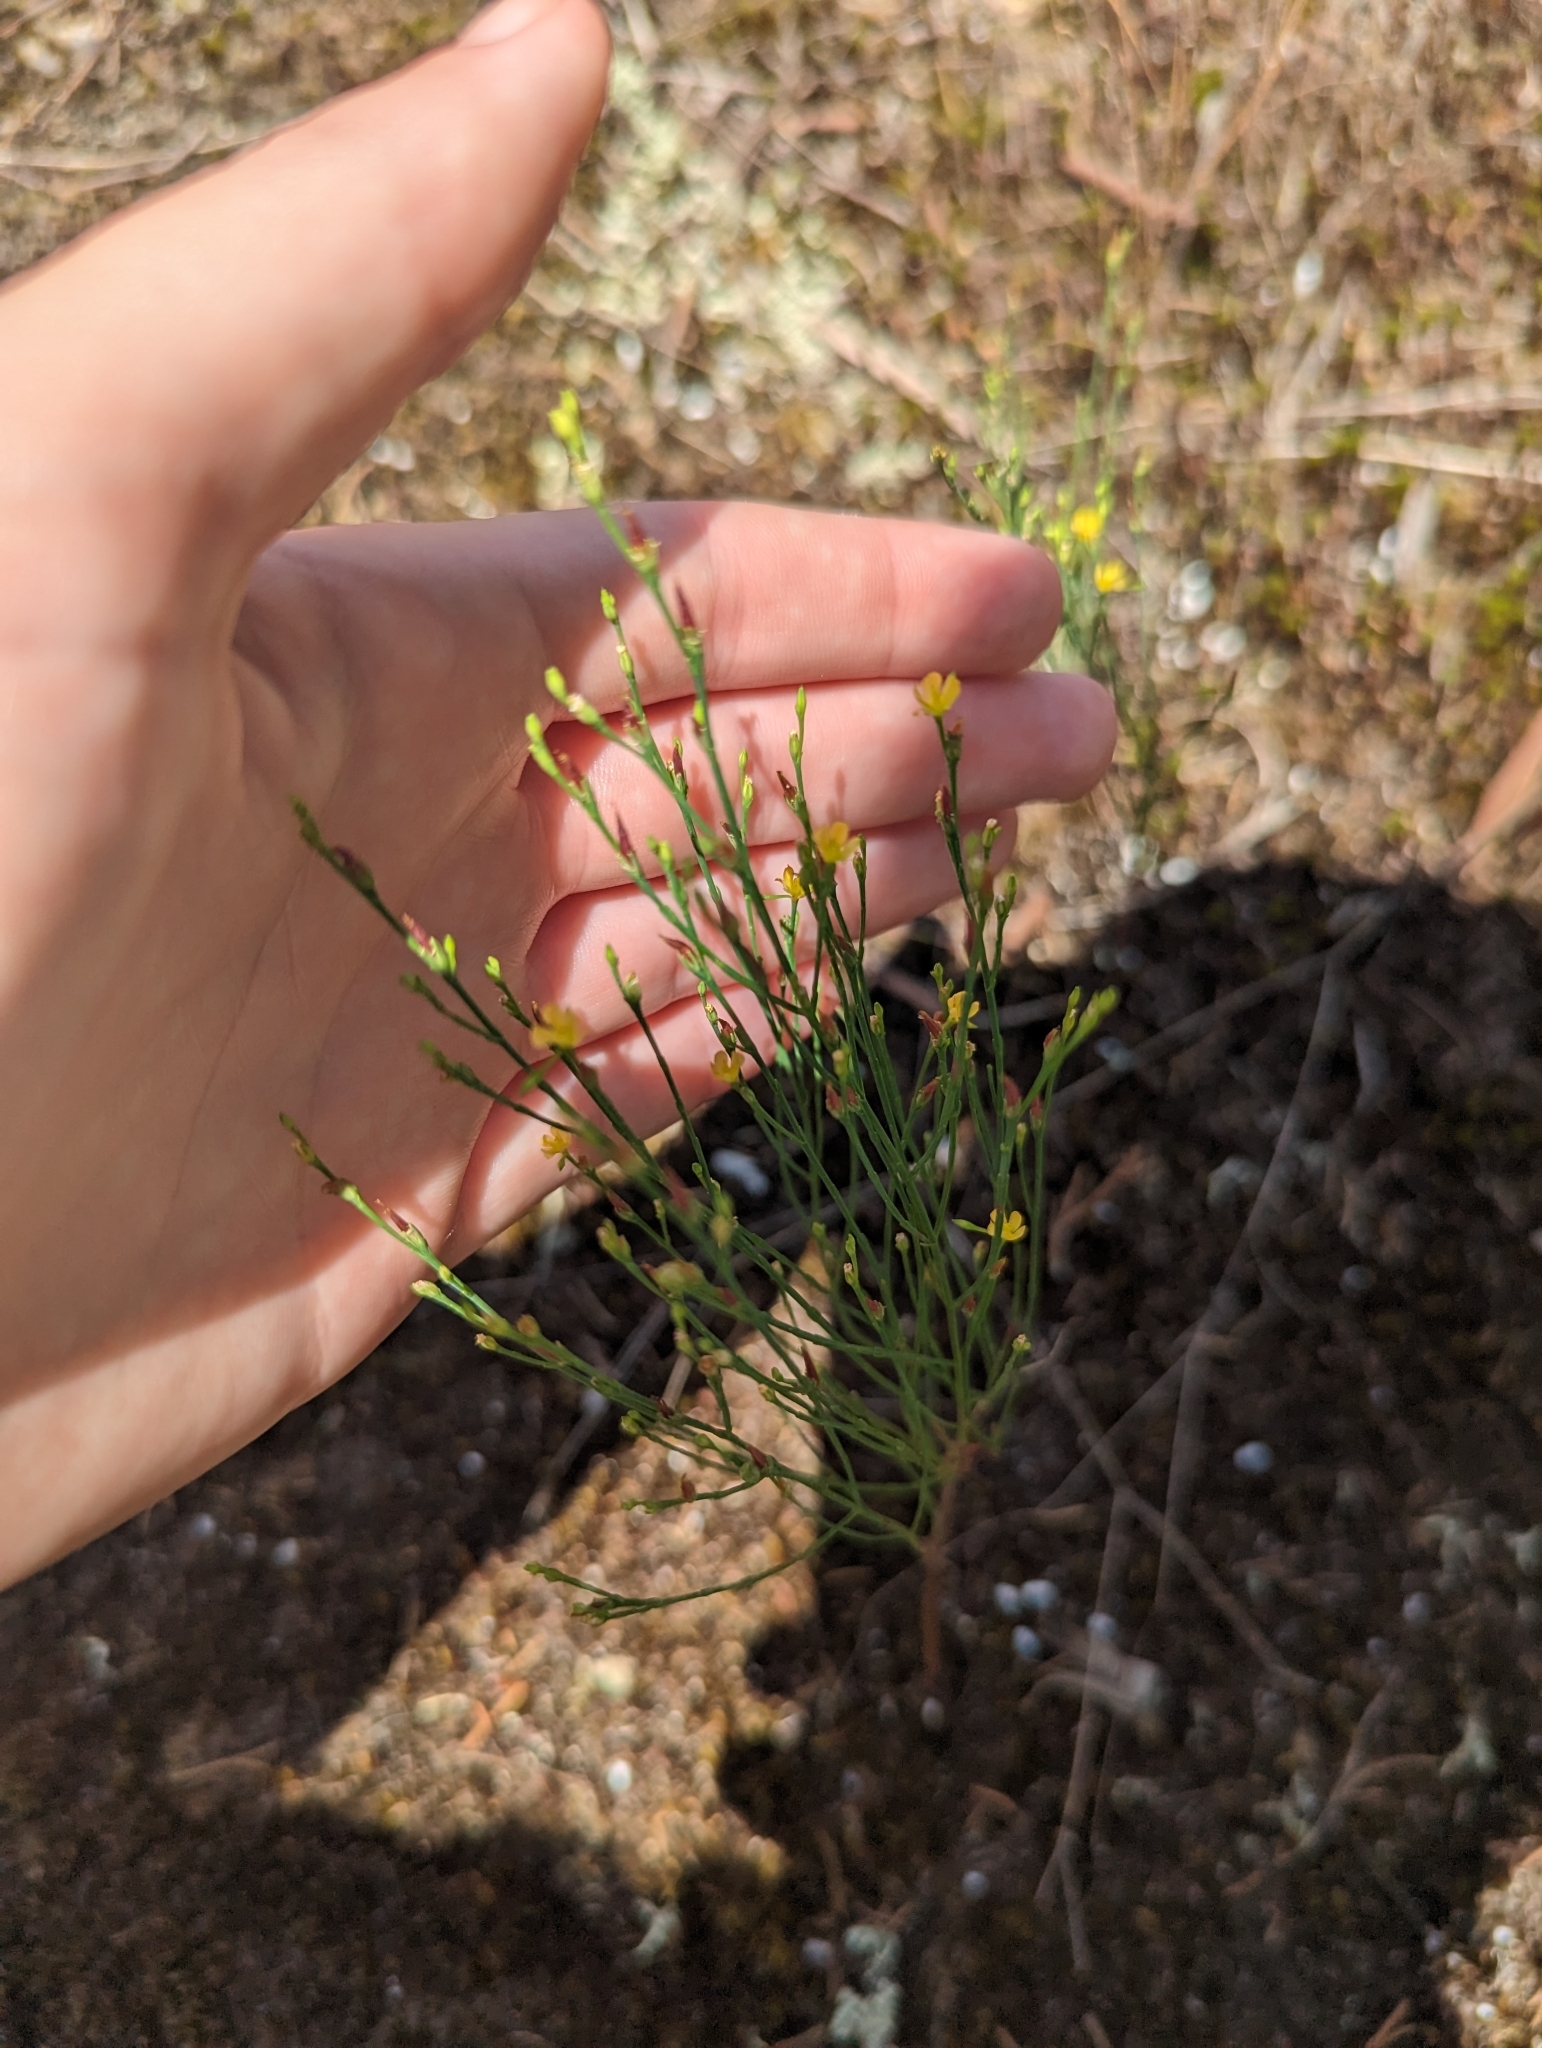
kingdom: Plantae
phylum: Tracheophyta
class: Magnoliopsida
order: Malpighiales
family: Hypericaceae
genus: Hypericum
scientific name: Hypericum gentianoides
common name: Gentian-leaved st. john's-wort
